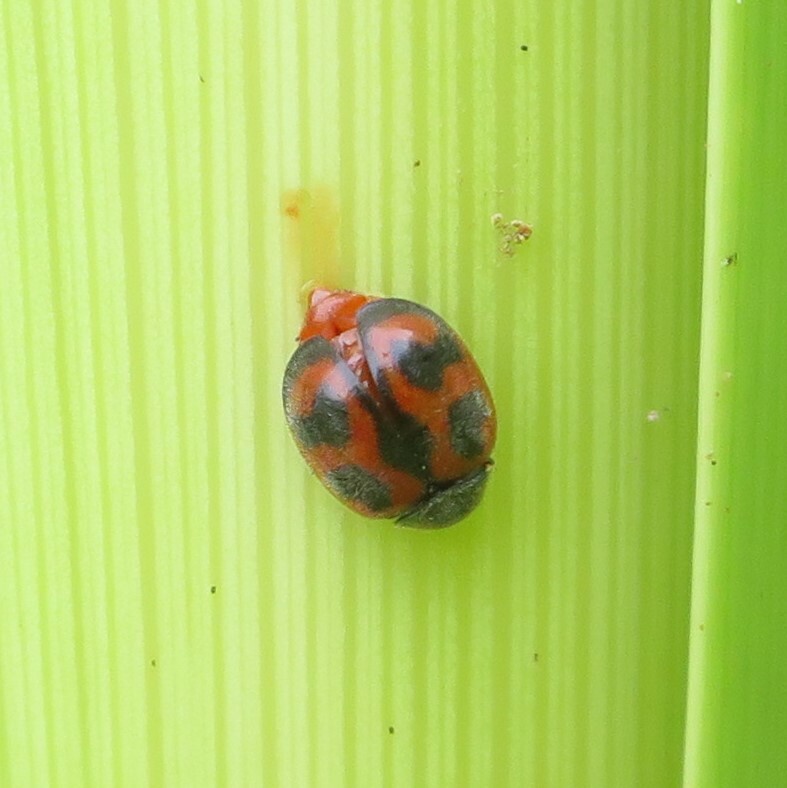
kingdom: Animalia
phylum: Arthropoda
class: Insecta
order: Coleoptera
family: Coccinellidae
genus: Novius
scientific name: Novius cardinalis
